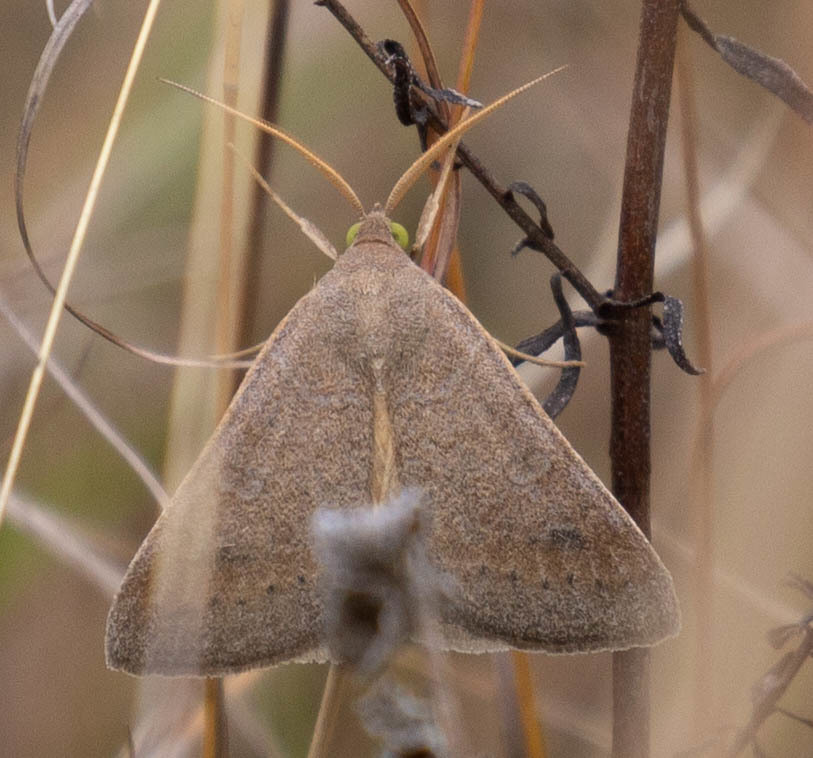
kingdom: Animalia
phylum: Arthropoda
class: Insecta
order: Lepidoptera
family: Erebidae
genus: Caenurgia
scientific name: Caenurgia chloropha
